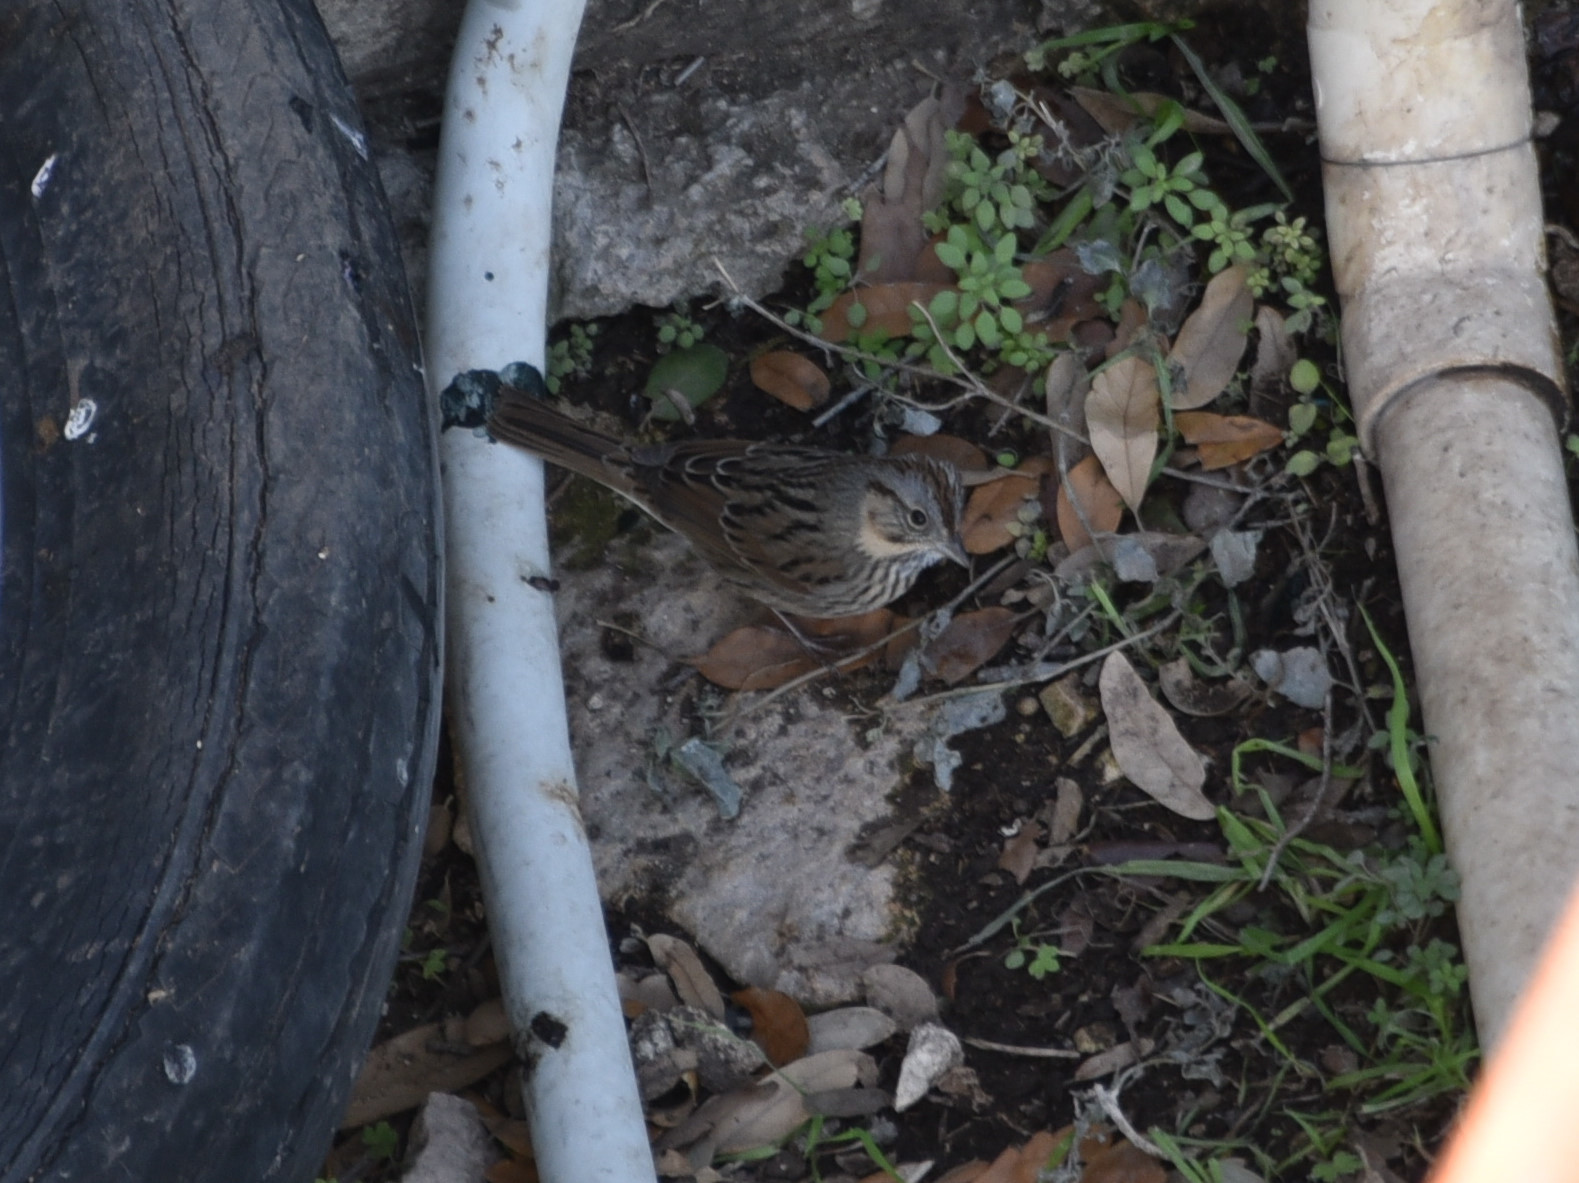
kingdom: Animalia
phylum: Chordata
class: Aves
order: Passeriformes
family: Passerellidae
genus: Melospiza
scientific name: Melospiza lincolnii
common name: Lincoln's sparrow
